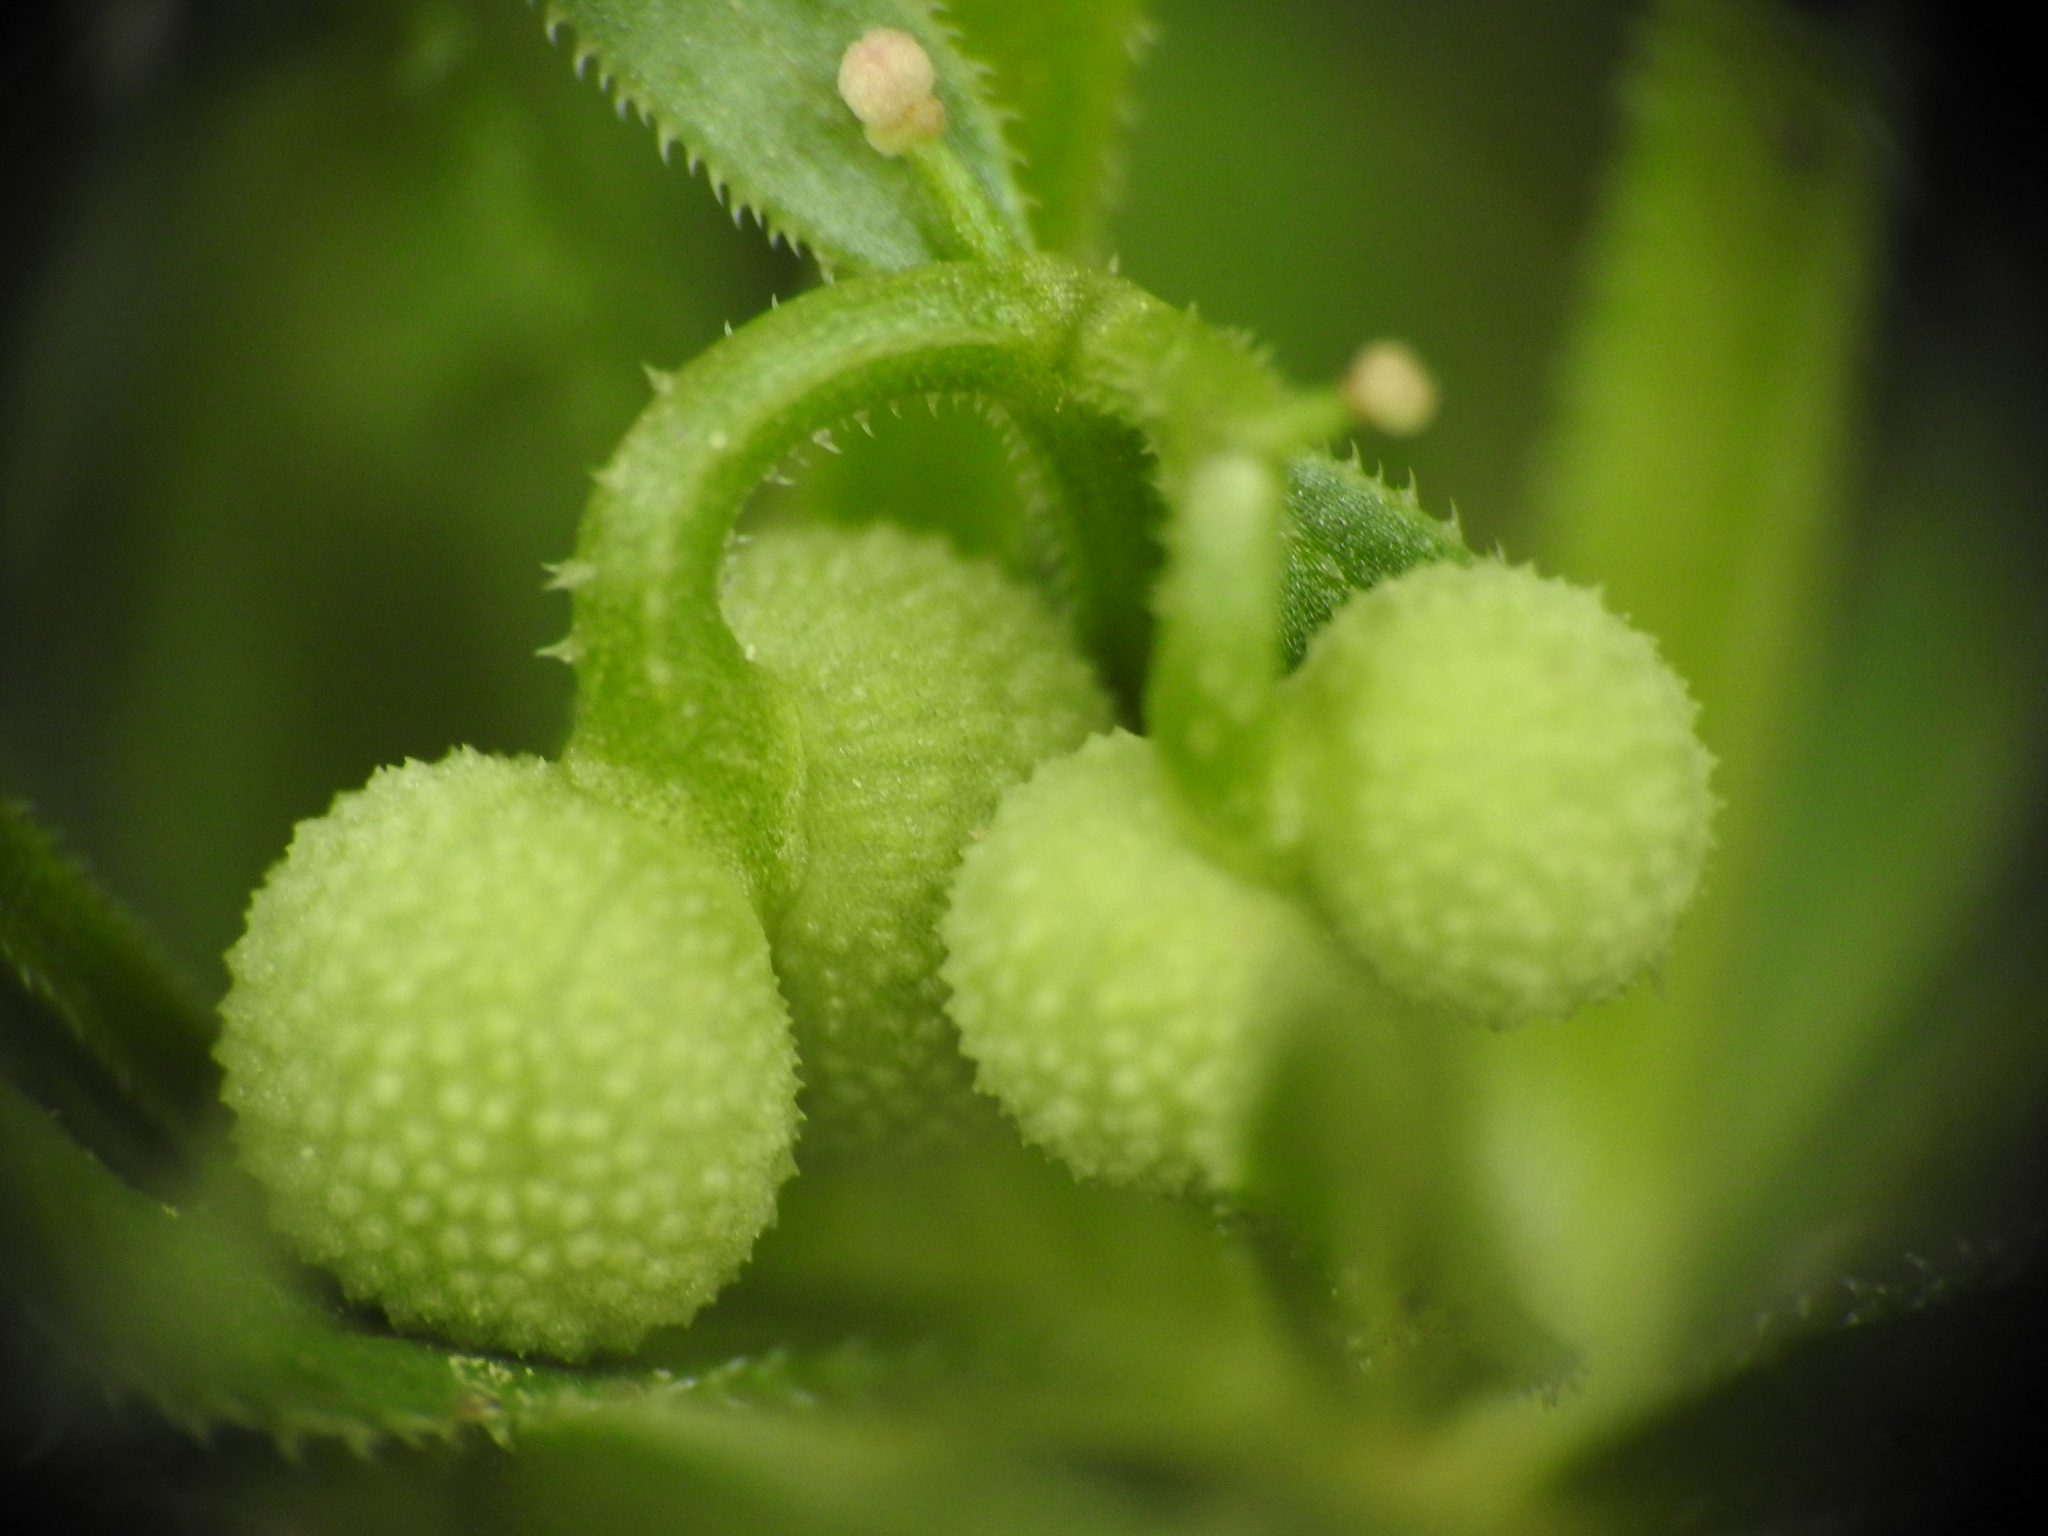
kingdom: Plantae
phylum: Tracheophyta
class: Magnoliopsida
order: Gentianales
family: Rubiaceae
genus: Galium
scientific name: Galium tricornutum
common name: Corn cleavers
